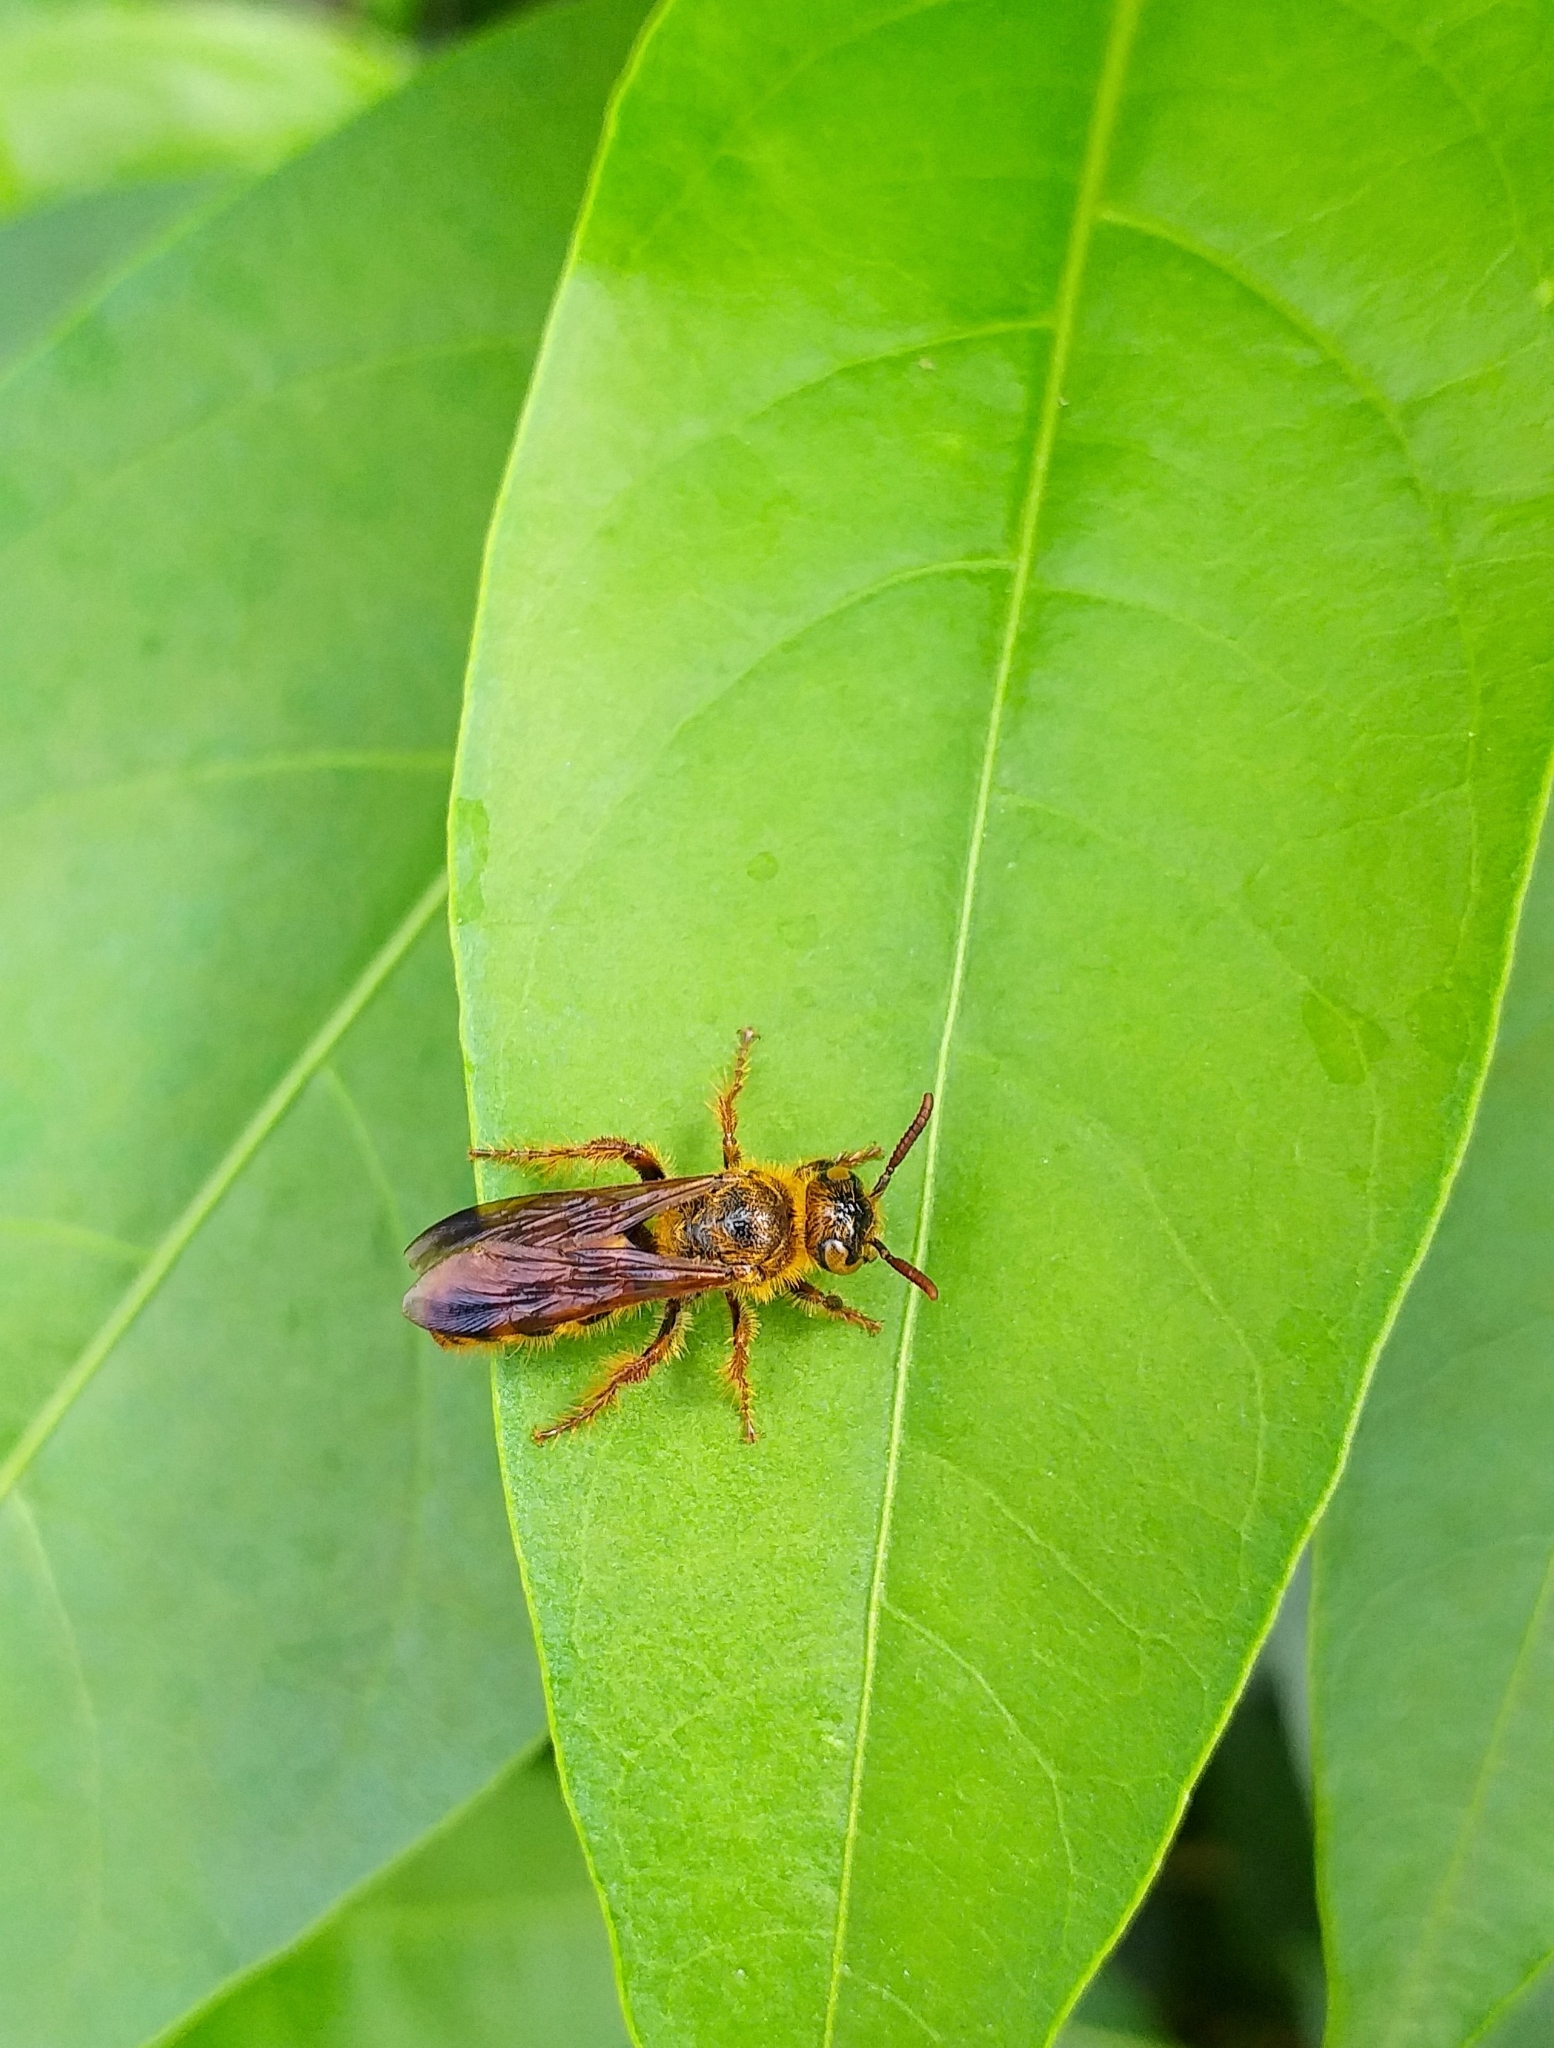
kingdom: Animalia
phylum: Arthropoda
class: Insecta
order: Hymenoptera
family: Scoliidae
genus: Phalerimeris
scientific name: Phalerimeris
